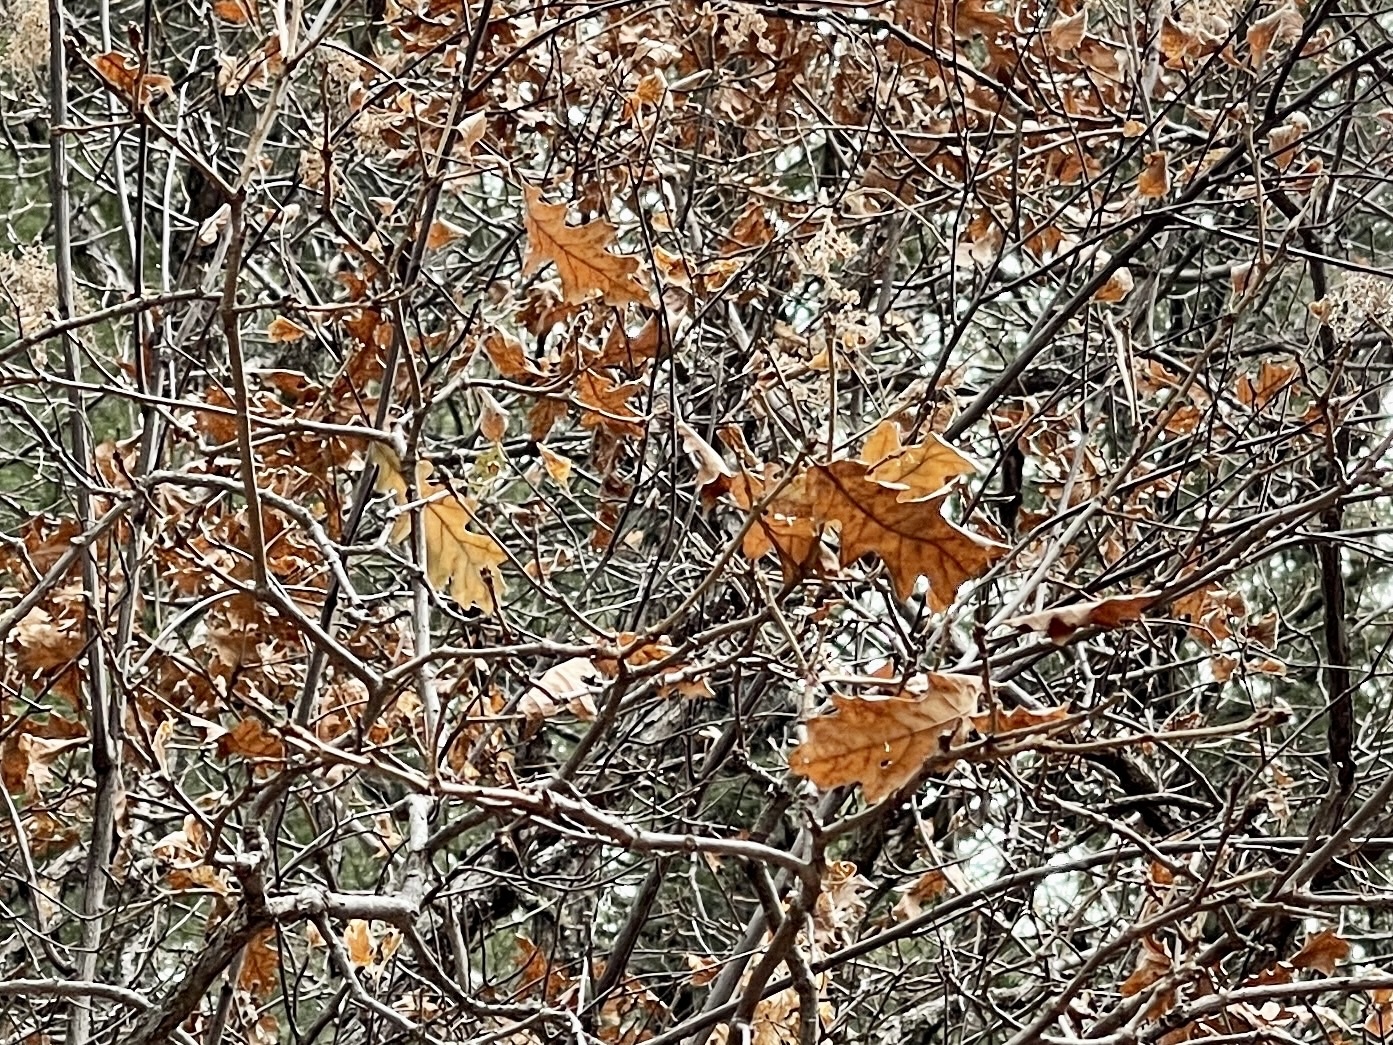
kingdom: Plantae
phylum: Tracheophyta
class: Magnoliopsida
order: Fagales
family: Fagaceae
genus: Quercus
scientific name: Quercus gambelii
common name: Gambel oak
